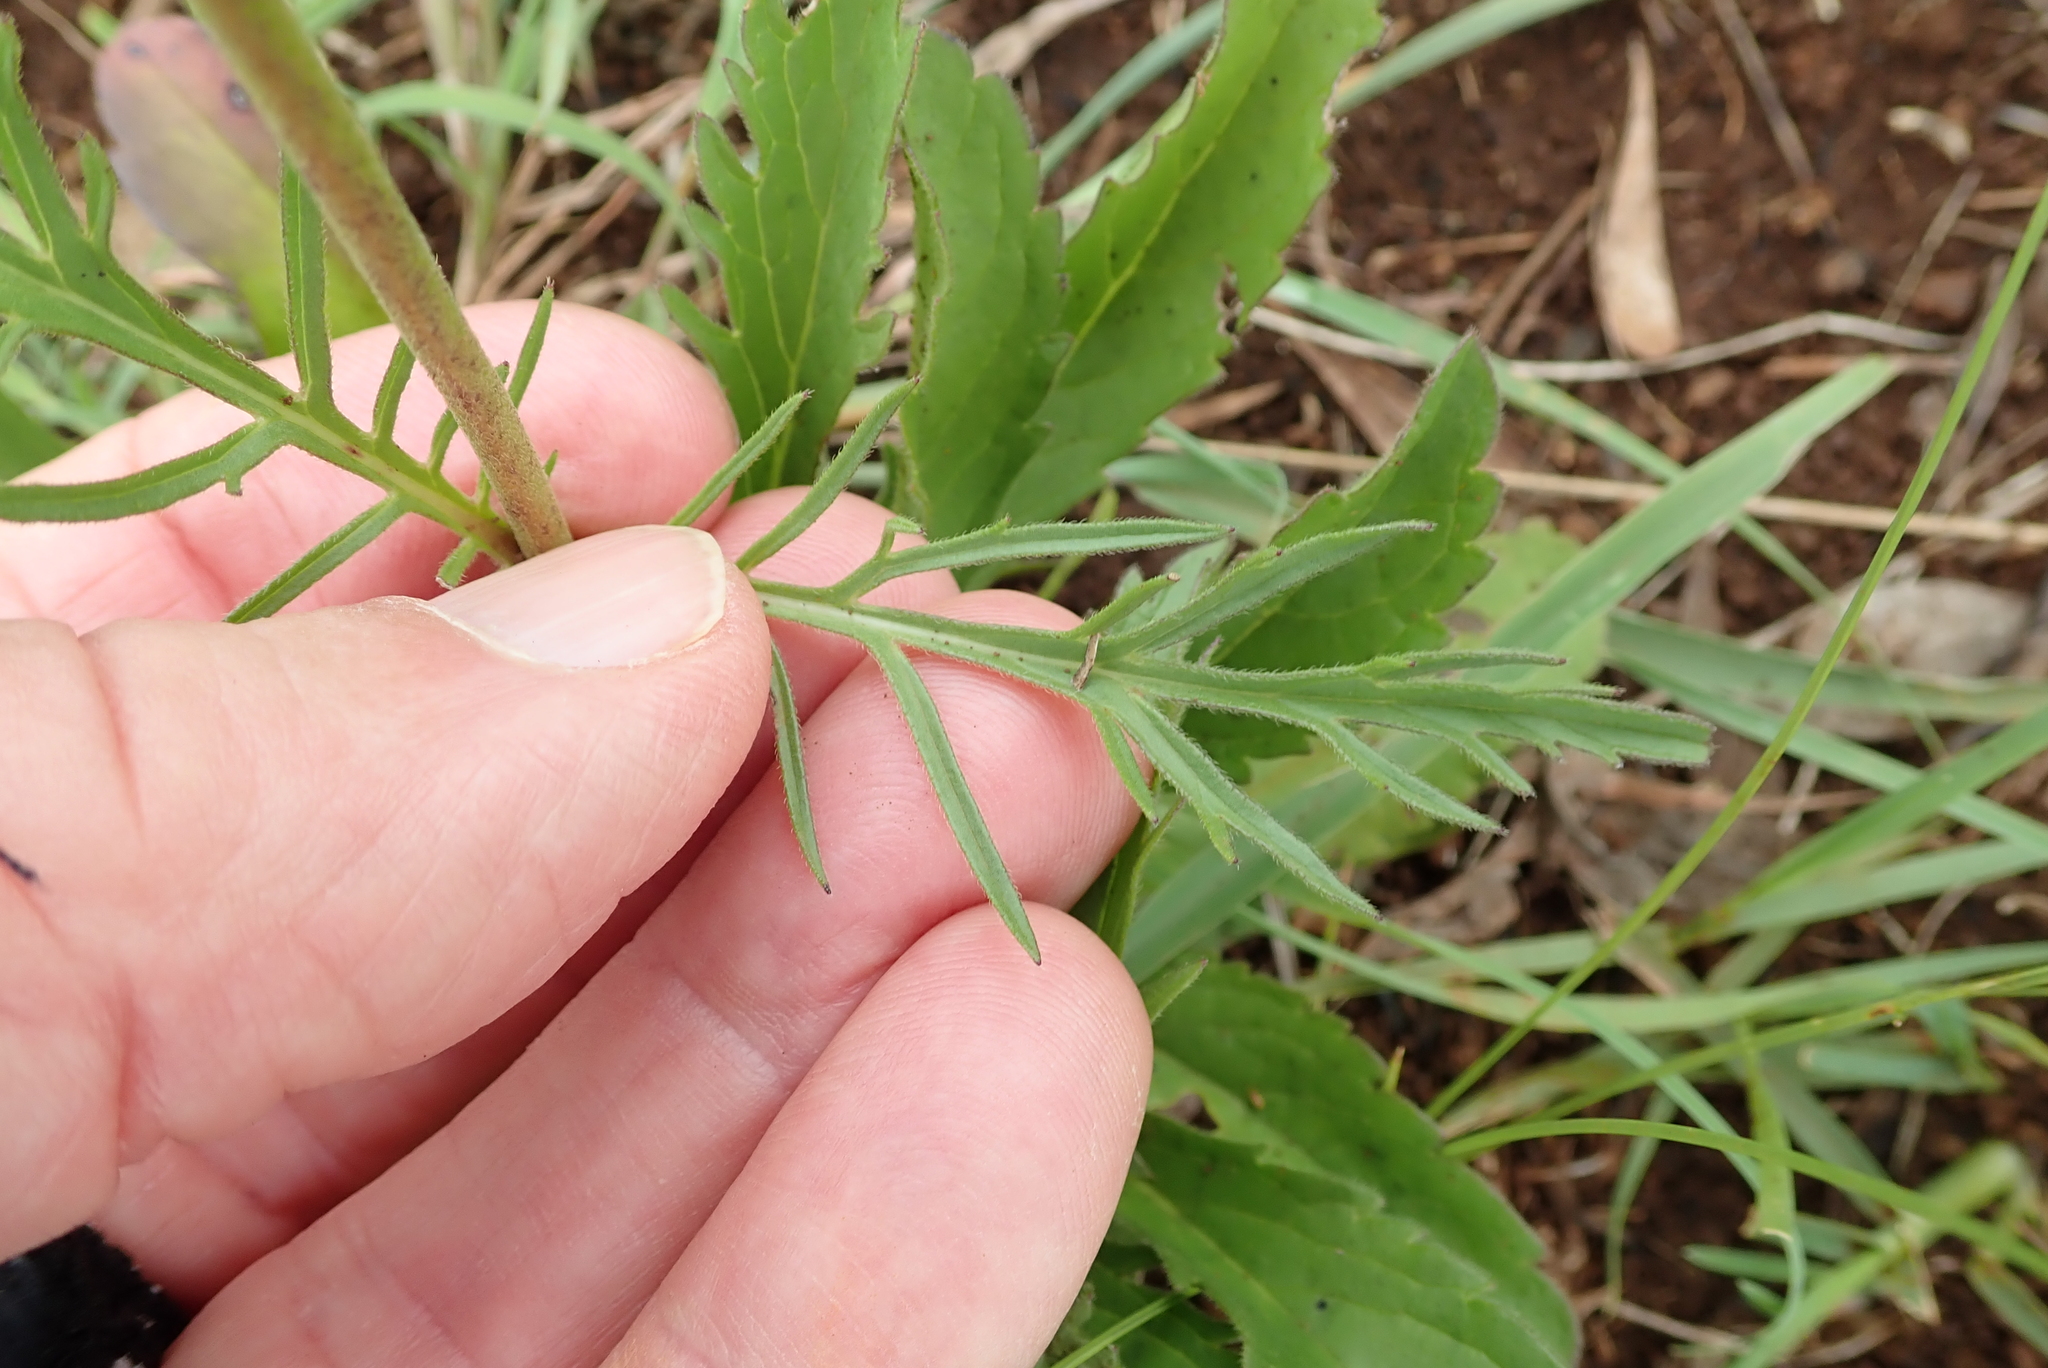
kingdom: Plantae
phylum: Tracheophyta
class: Magnoliopsida
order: Dipsacales
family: Caprifoliaceae
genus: Scabiosa
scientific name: Scabiosa columbaria
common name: Small scabious
